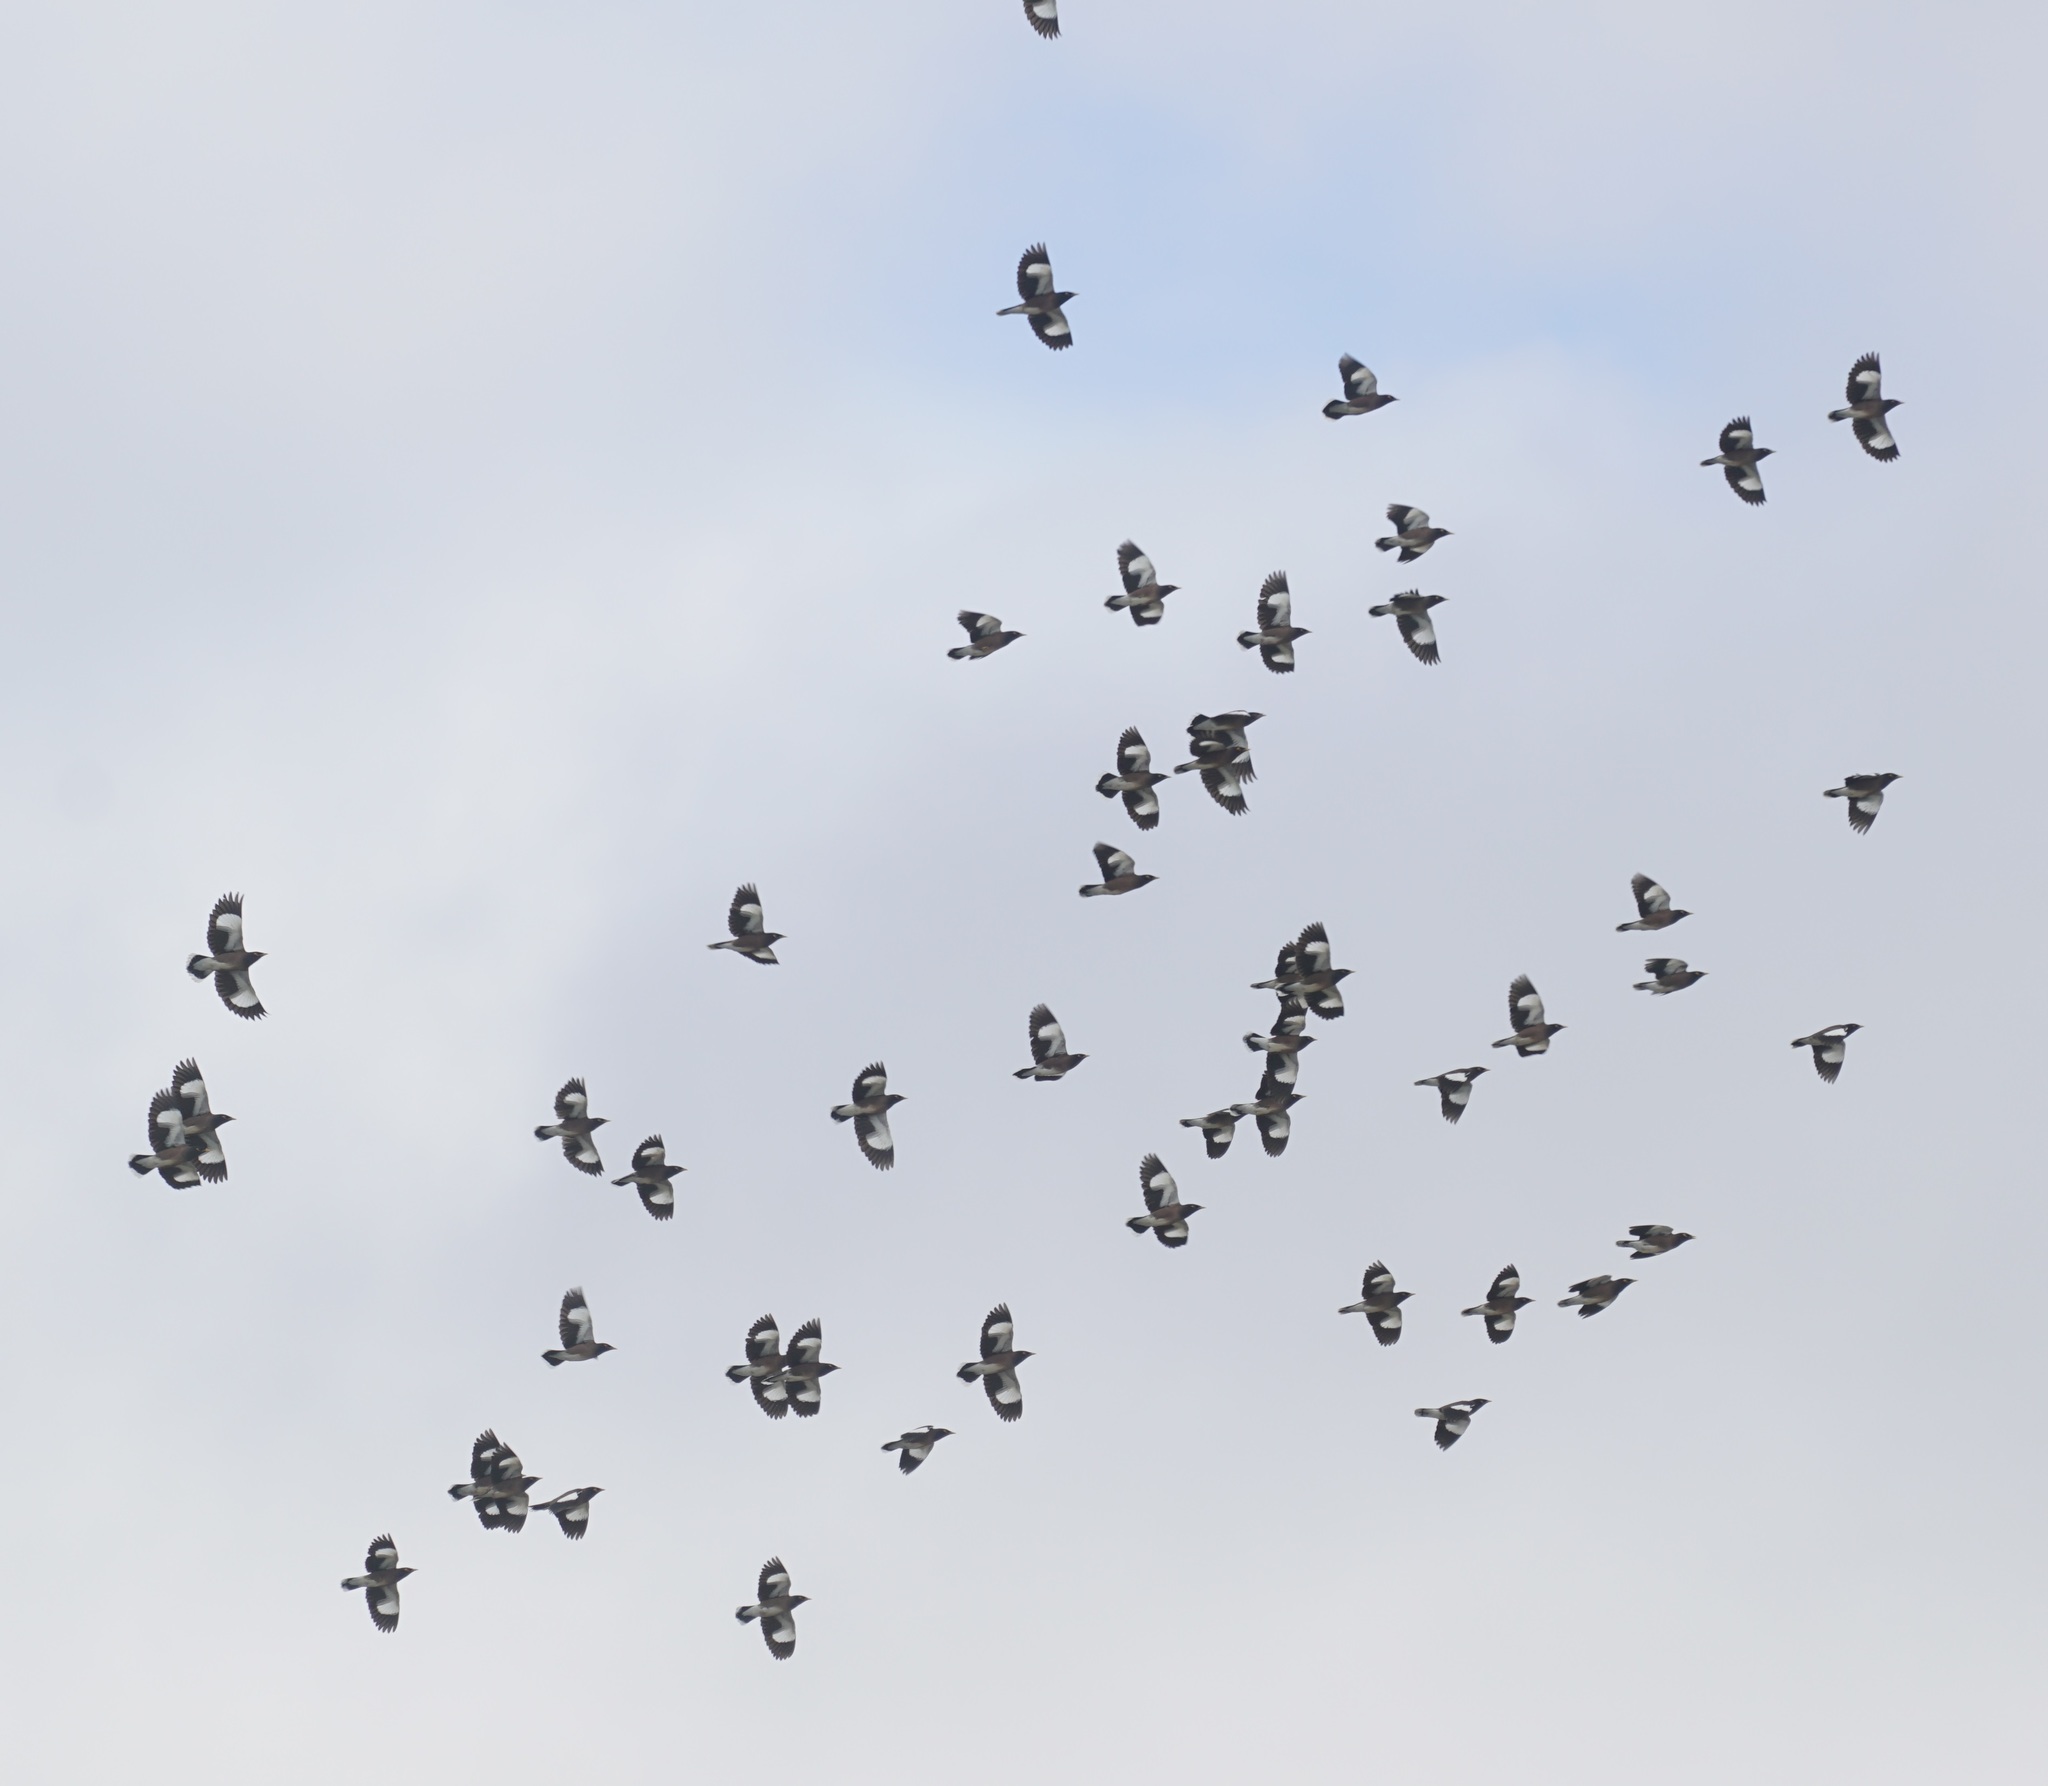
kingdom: Animalia
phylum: Chordata
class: Aves
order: Passeriformes
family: Sturnidae
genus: Acridotheres
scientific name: Acridotheres tristis
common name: Common myna
